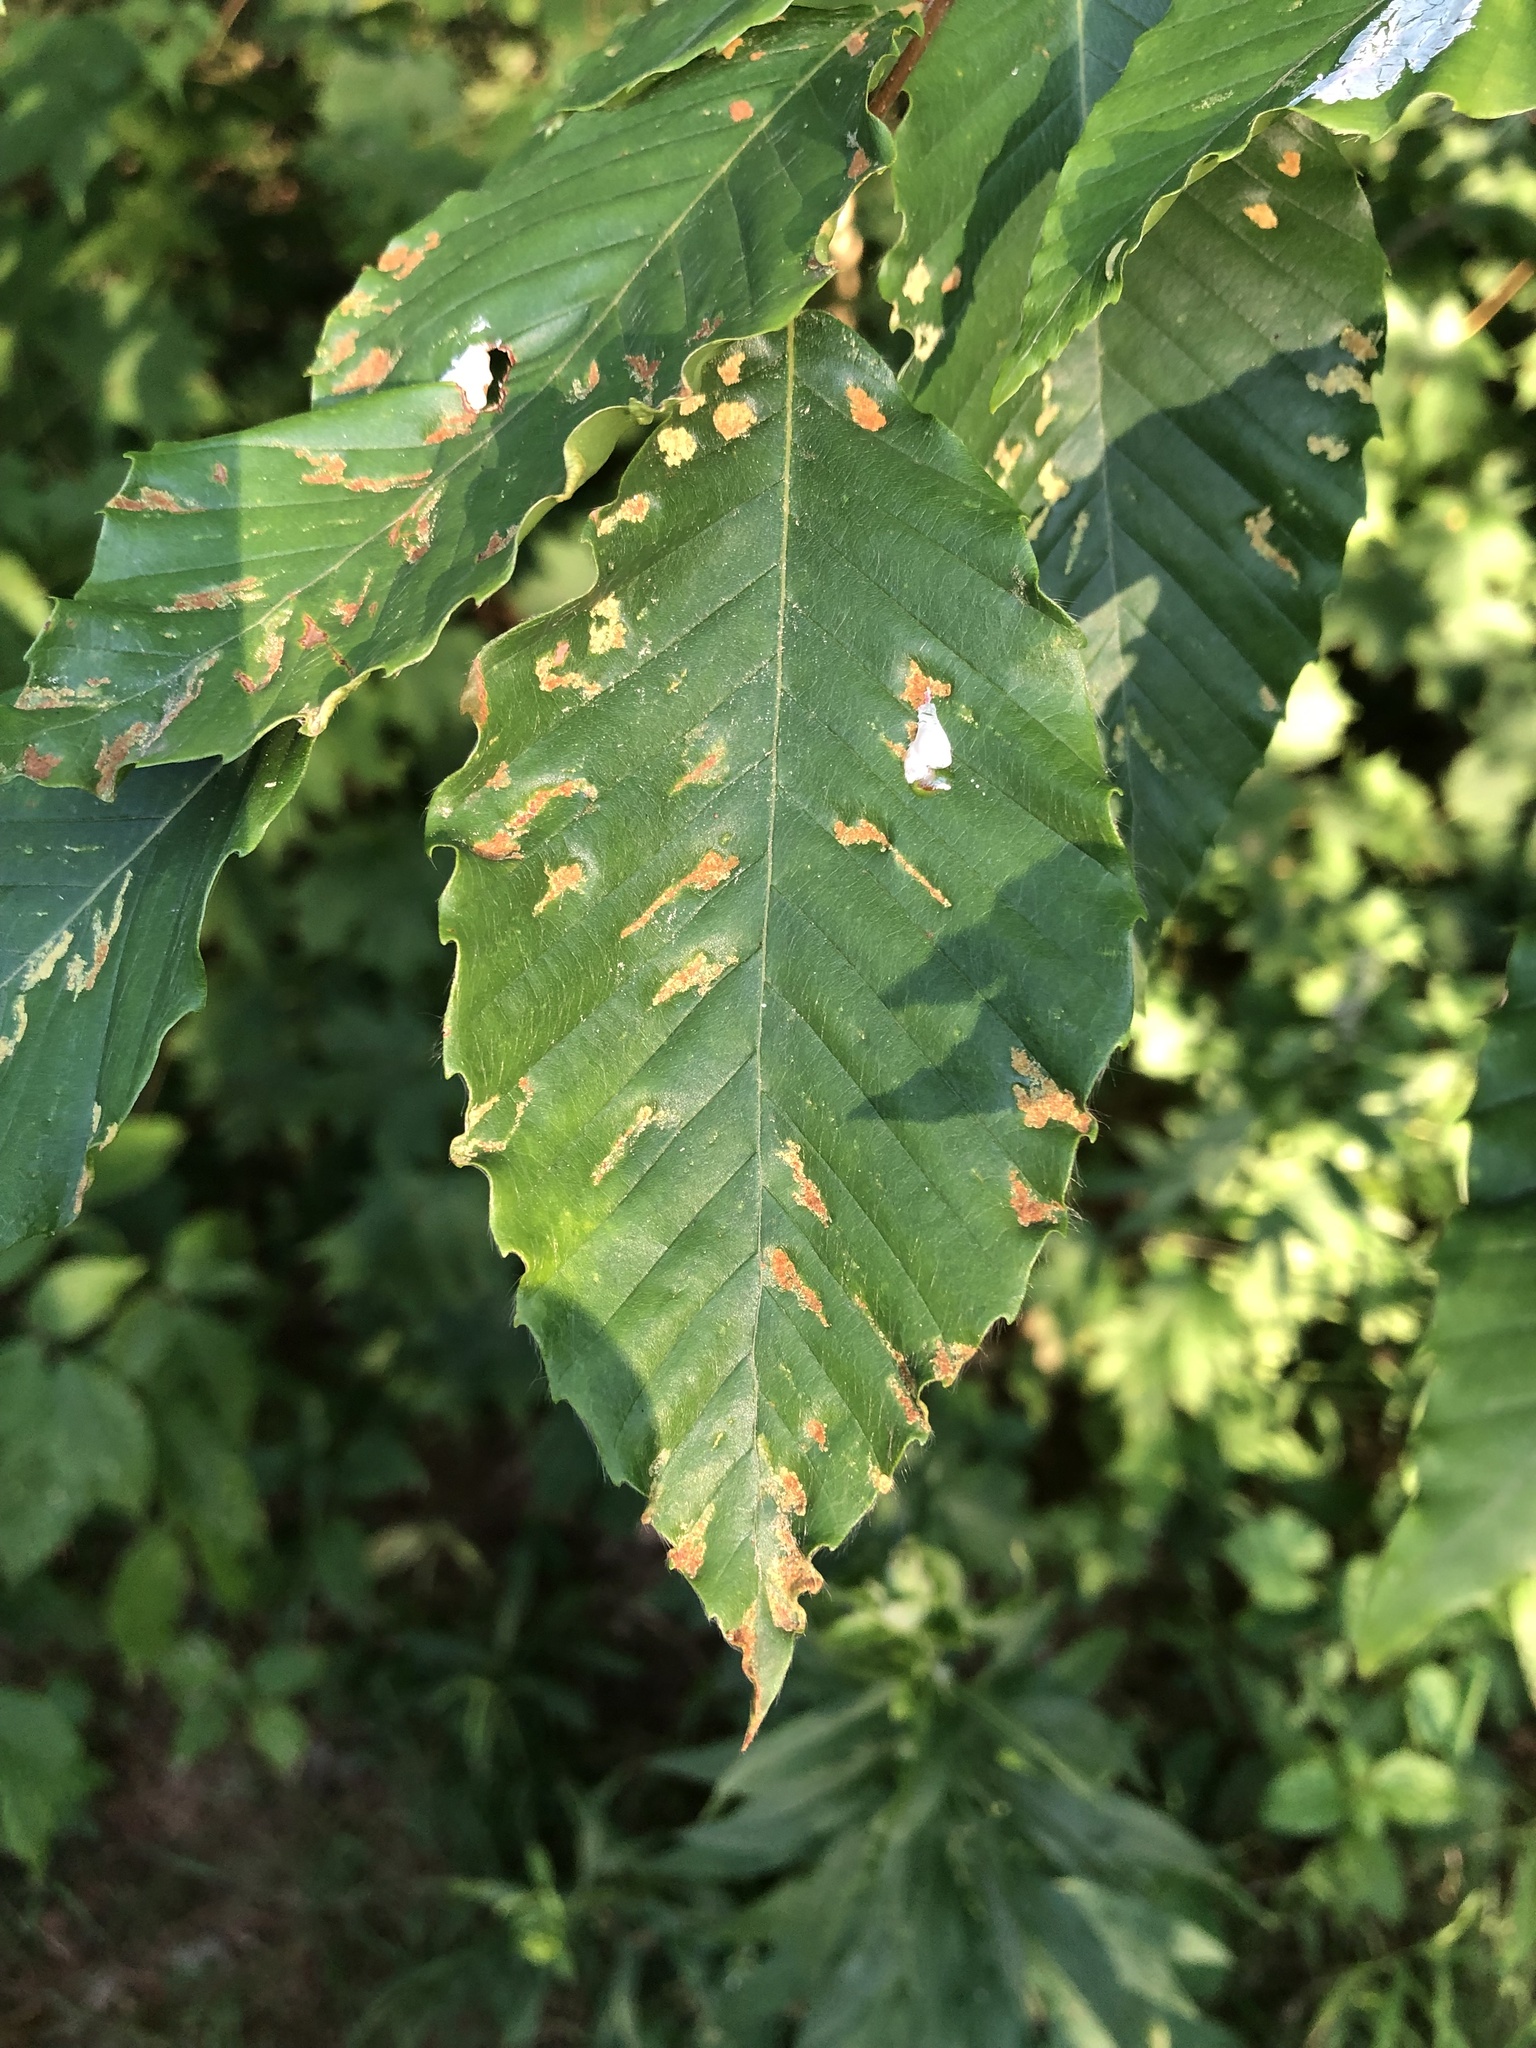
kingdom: Animalia
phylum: Arthropoda
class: Arachnida
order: Trombidiformes
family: Eriophyidae
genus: Acalitus
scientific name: Acalitus
